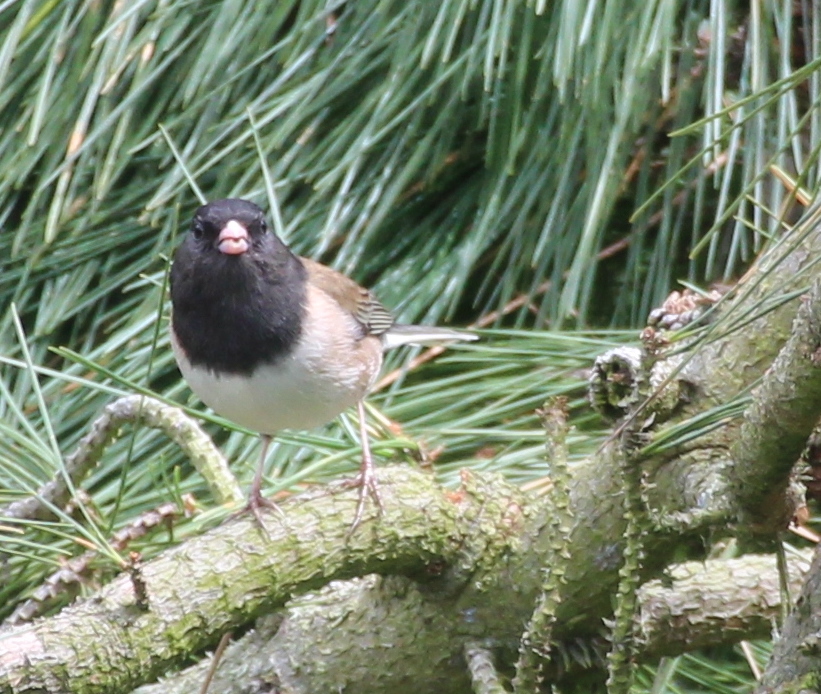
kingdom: Animalia
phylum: Chordata
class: Aves
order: Passeriformes
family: Passerellidae
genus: Junco
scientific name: Junco hyemalis
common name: Dark-eyed junco
